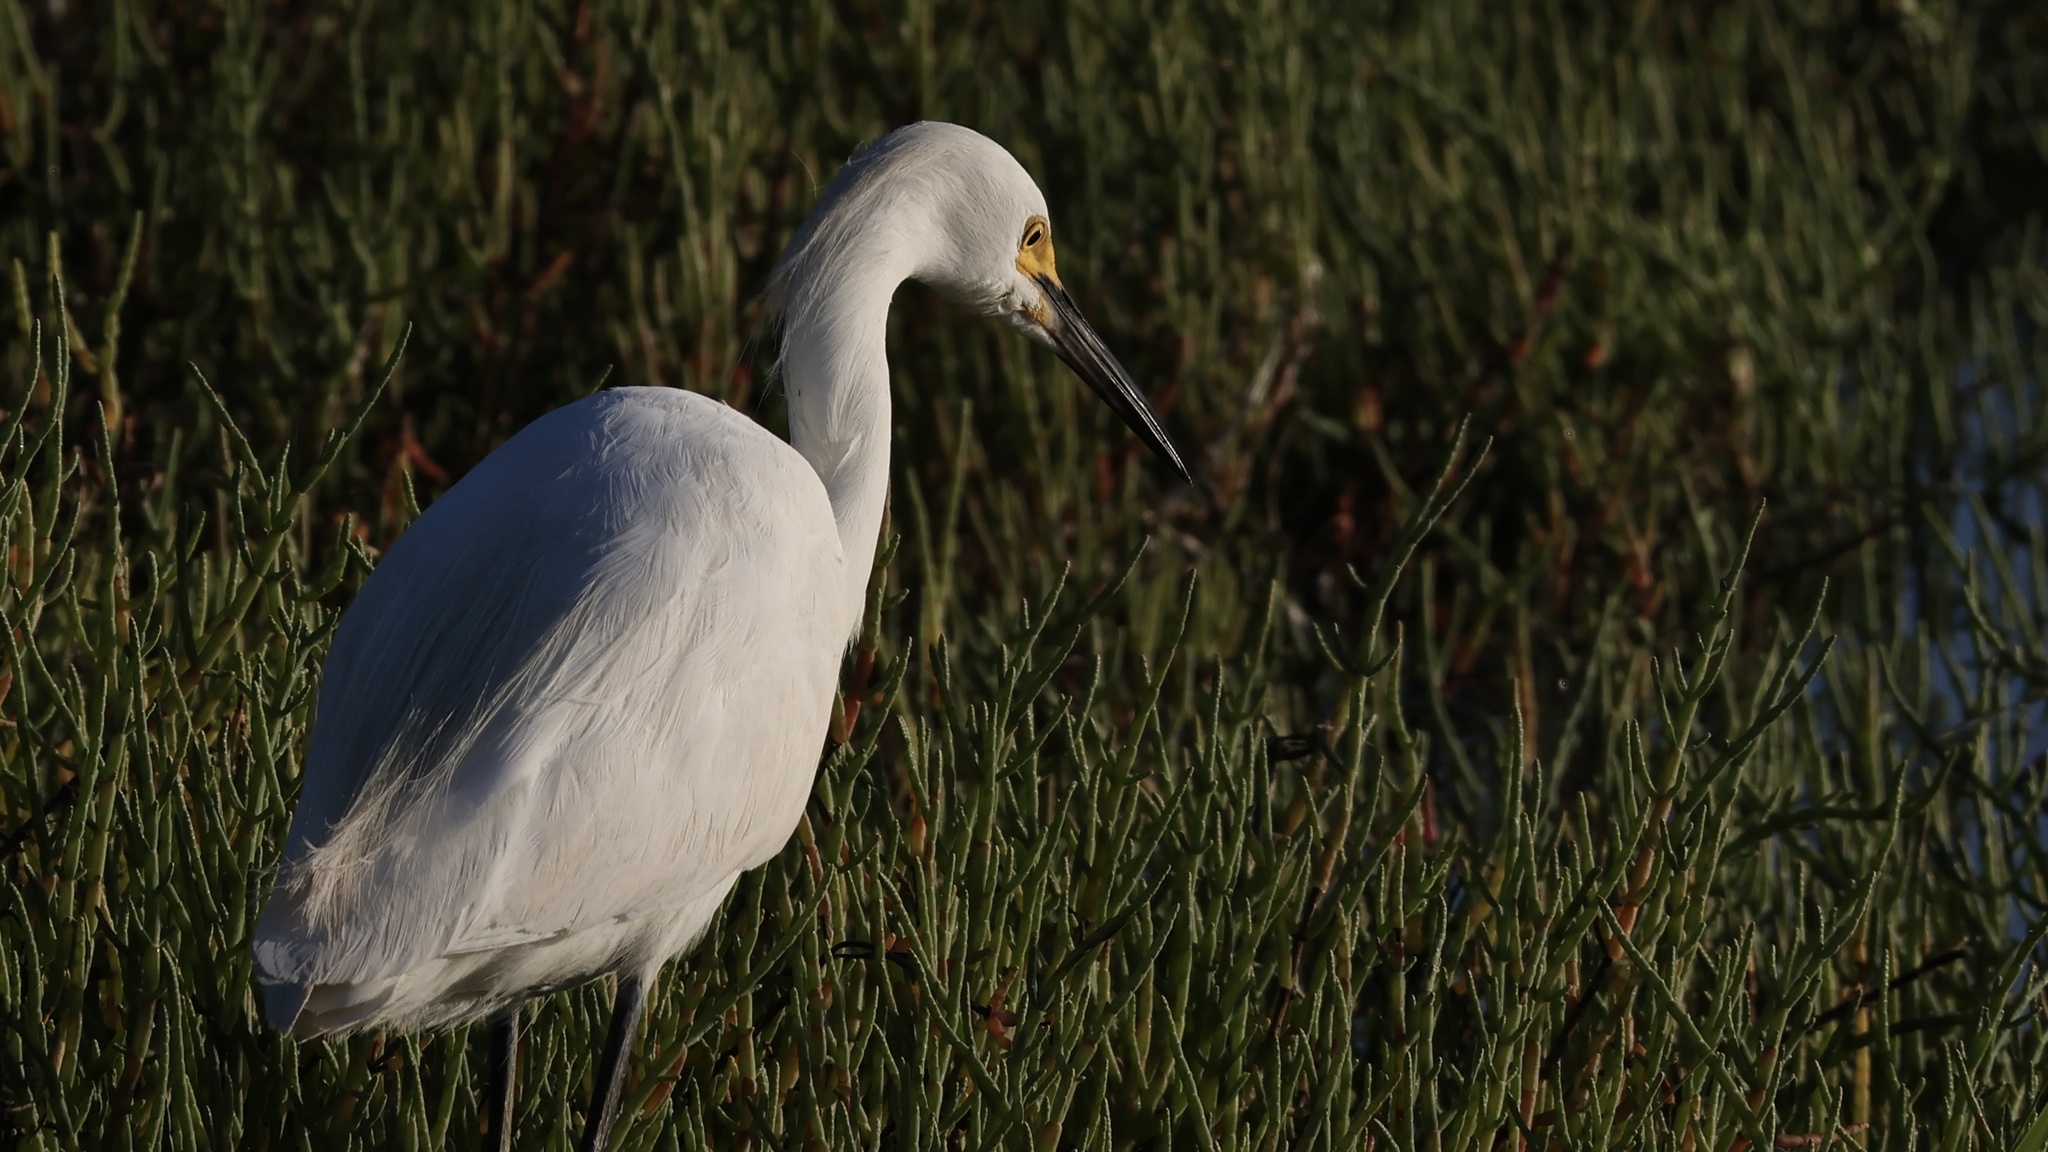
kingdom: Animalia
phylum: Chordata
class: Aves
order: Pelecaniformes
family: Ardeidae
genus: Egretta
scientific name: Egretta thula
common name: Snowy egret
